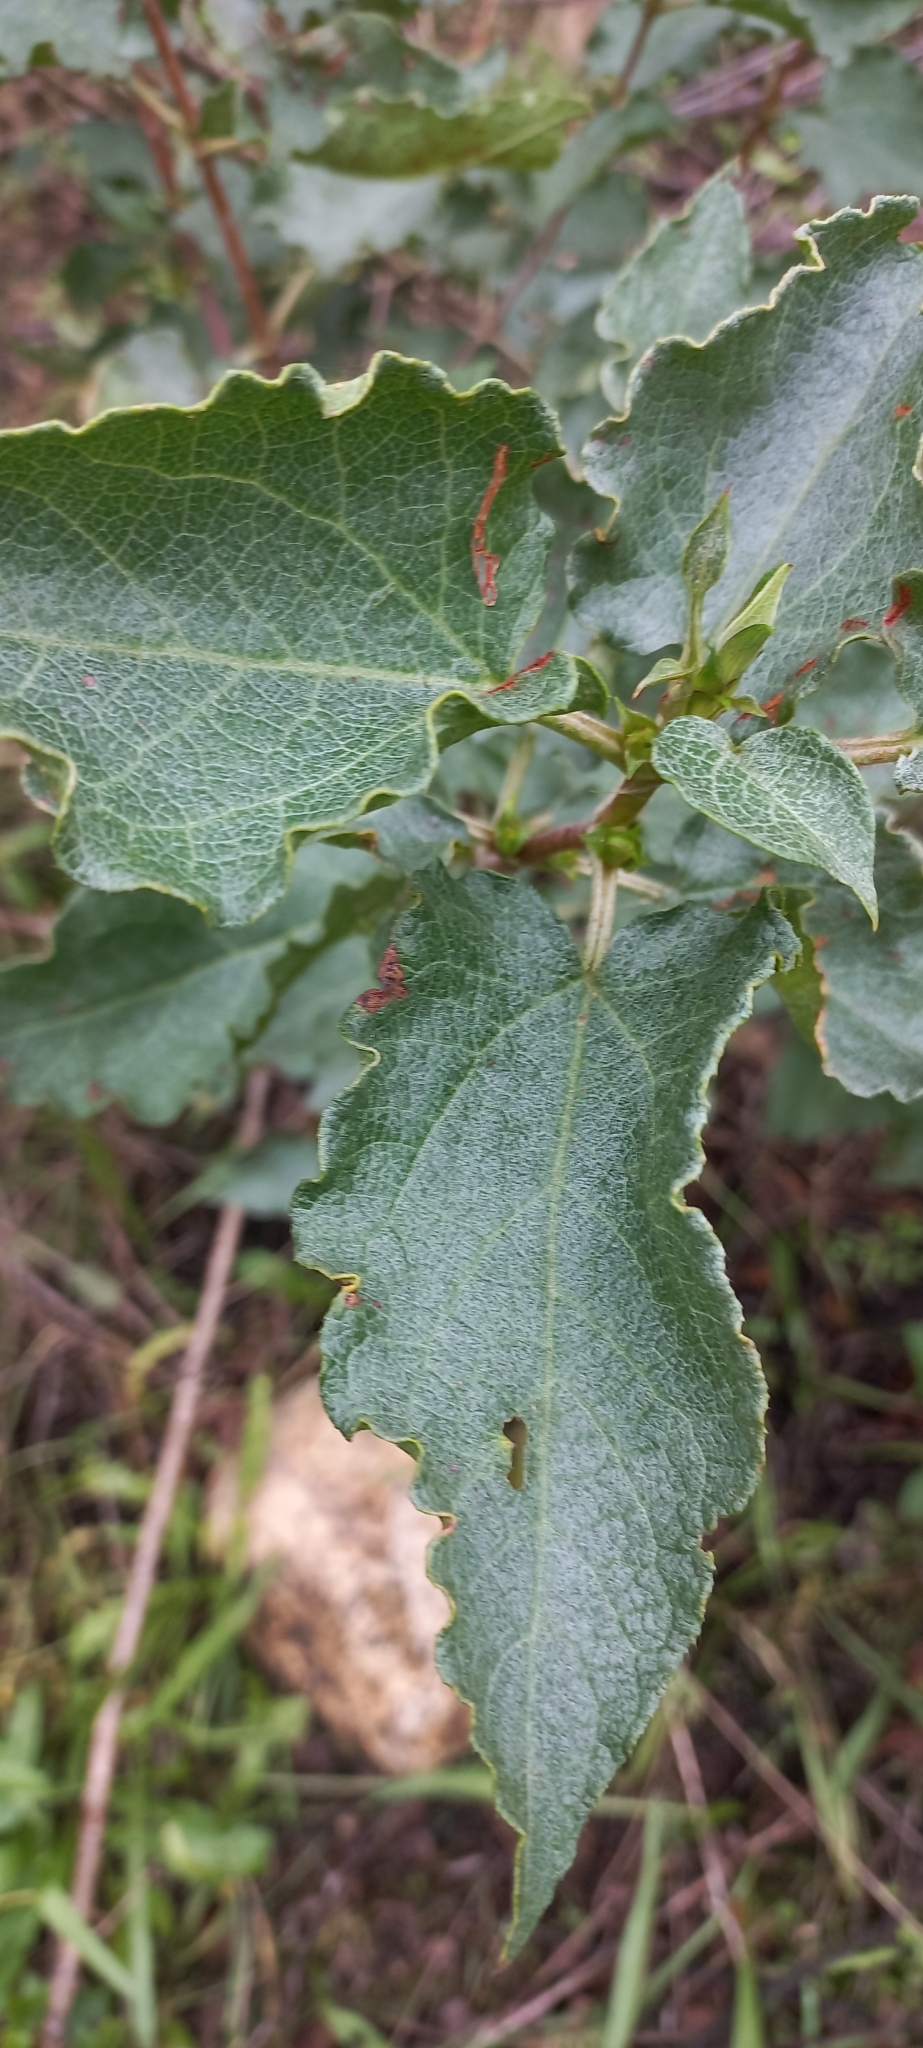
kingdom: Plantae
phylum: Tracheophyta
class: Magnoliopsida
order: Malvales
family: Cistaceae
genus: Cistus
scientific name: Cistus populifolius
